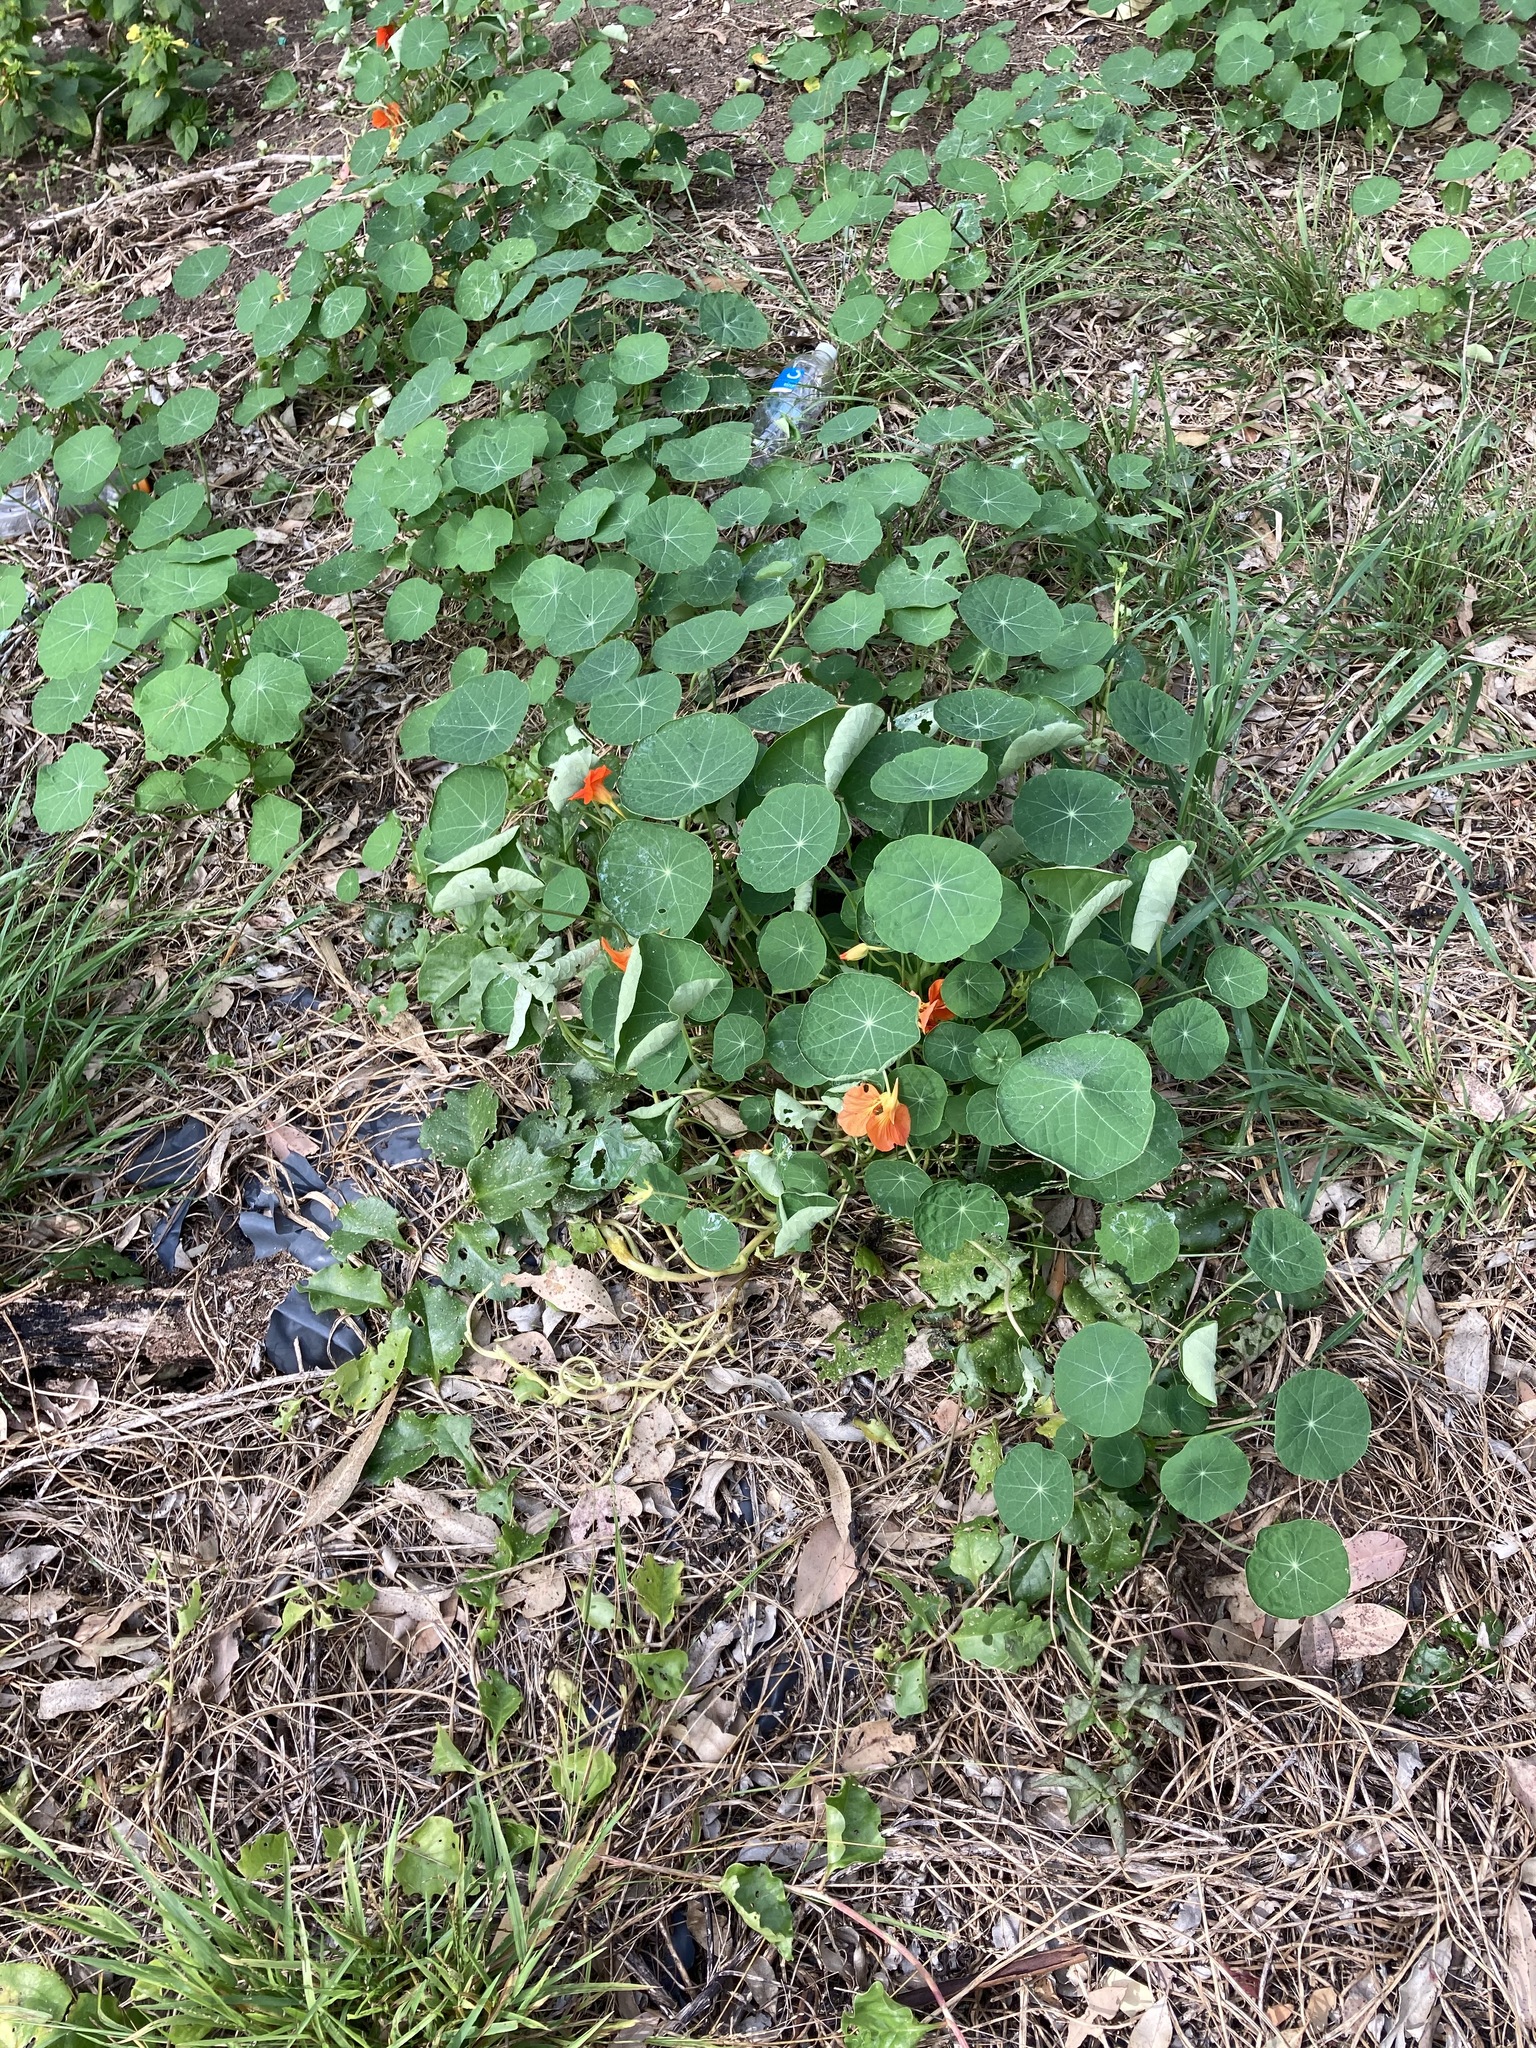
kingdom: Plantae
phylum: Tracheophyta
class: Magnoliopsida
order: Brassicales
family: Tropaeolaceae
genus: Tropaeolum
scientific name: Tropaeolum majus
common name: Nasturtium
